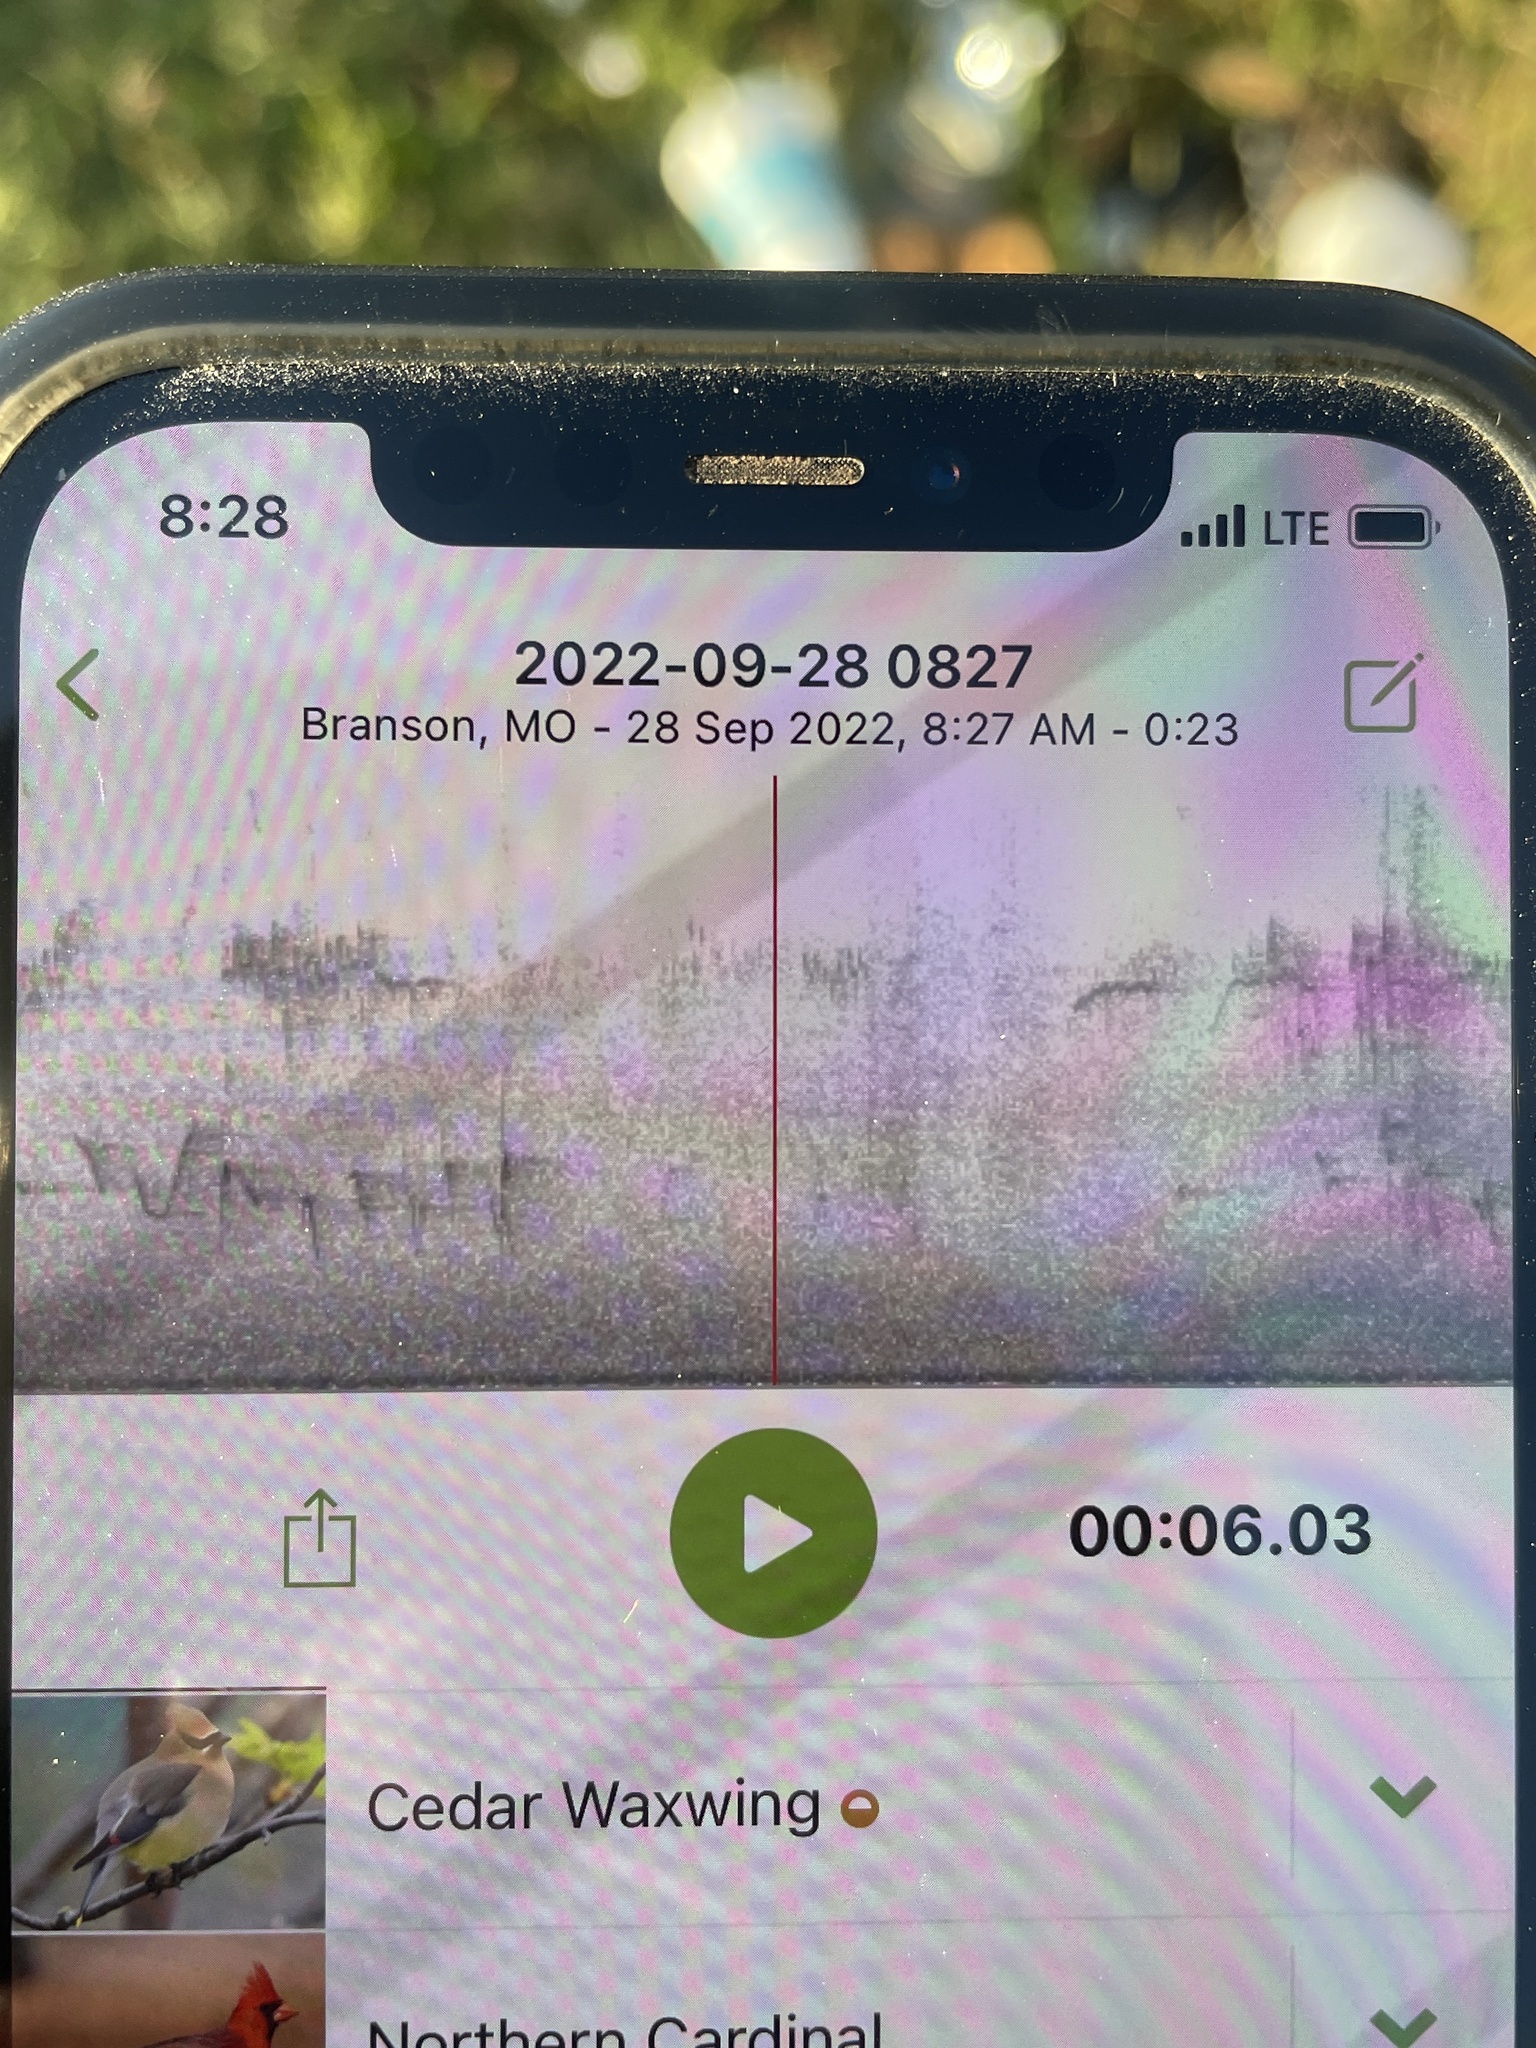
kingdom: Animalia
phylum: Chordata
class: Aves
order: Passeriformes
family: Fringillidae
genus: Haemorhous
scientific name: Haemorhous mexicanus
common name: House finch
